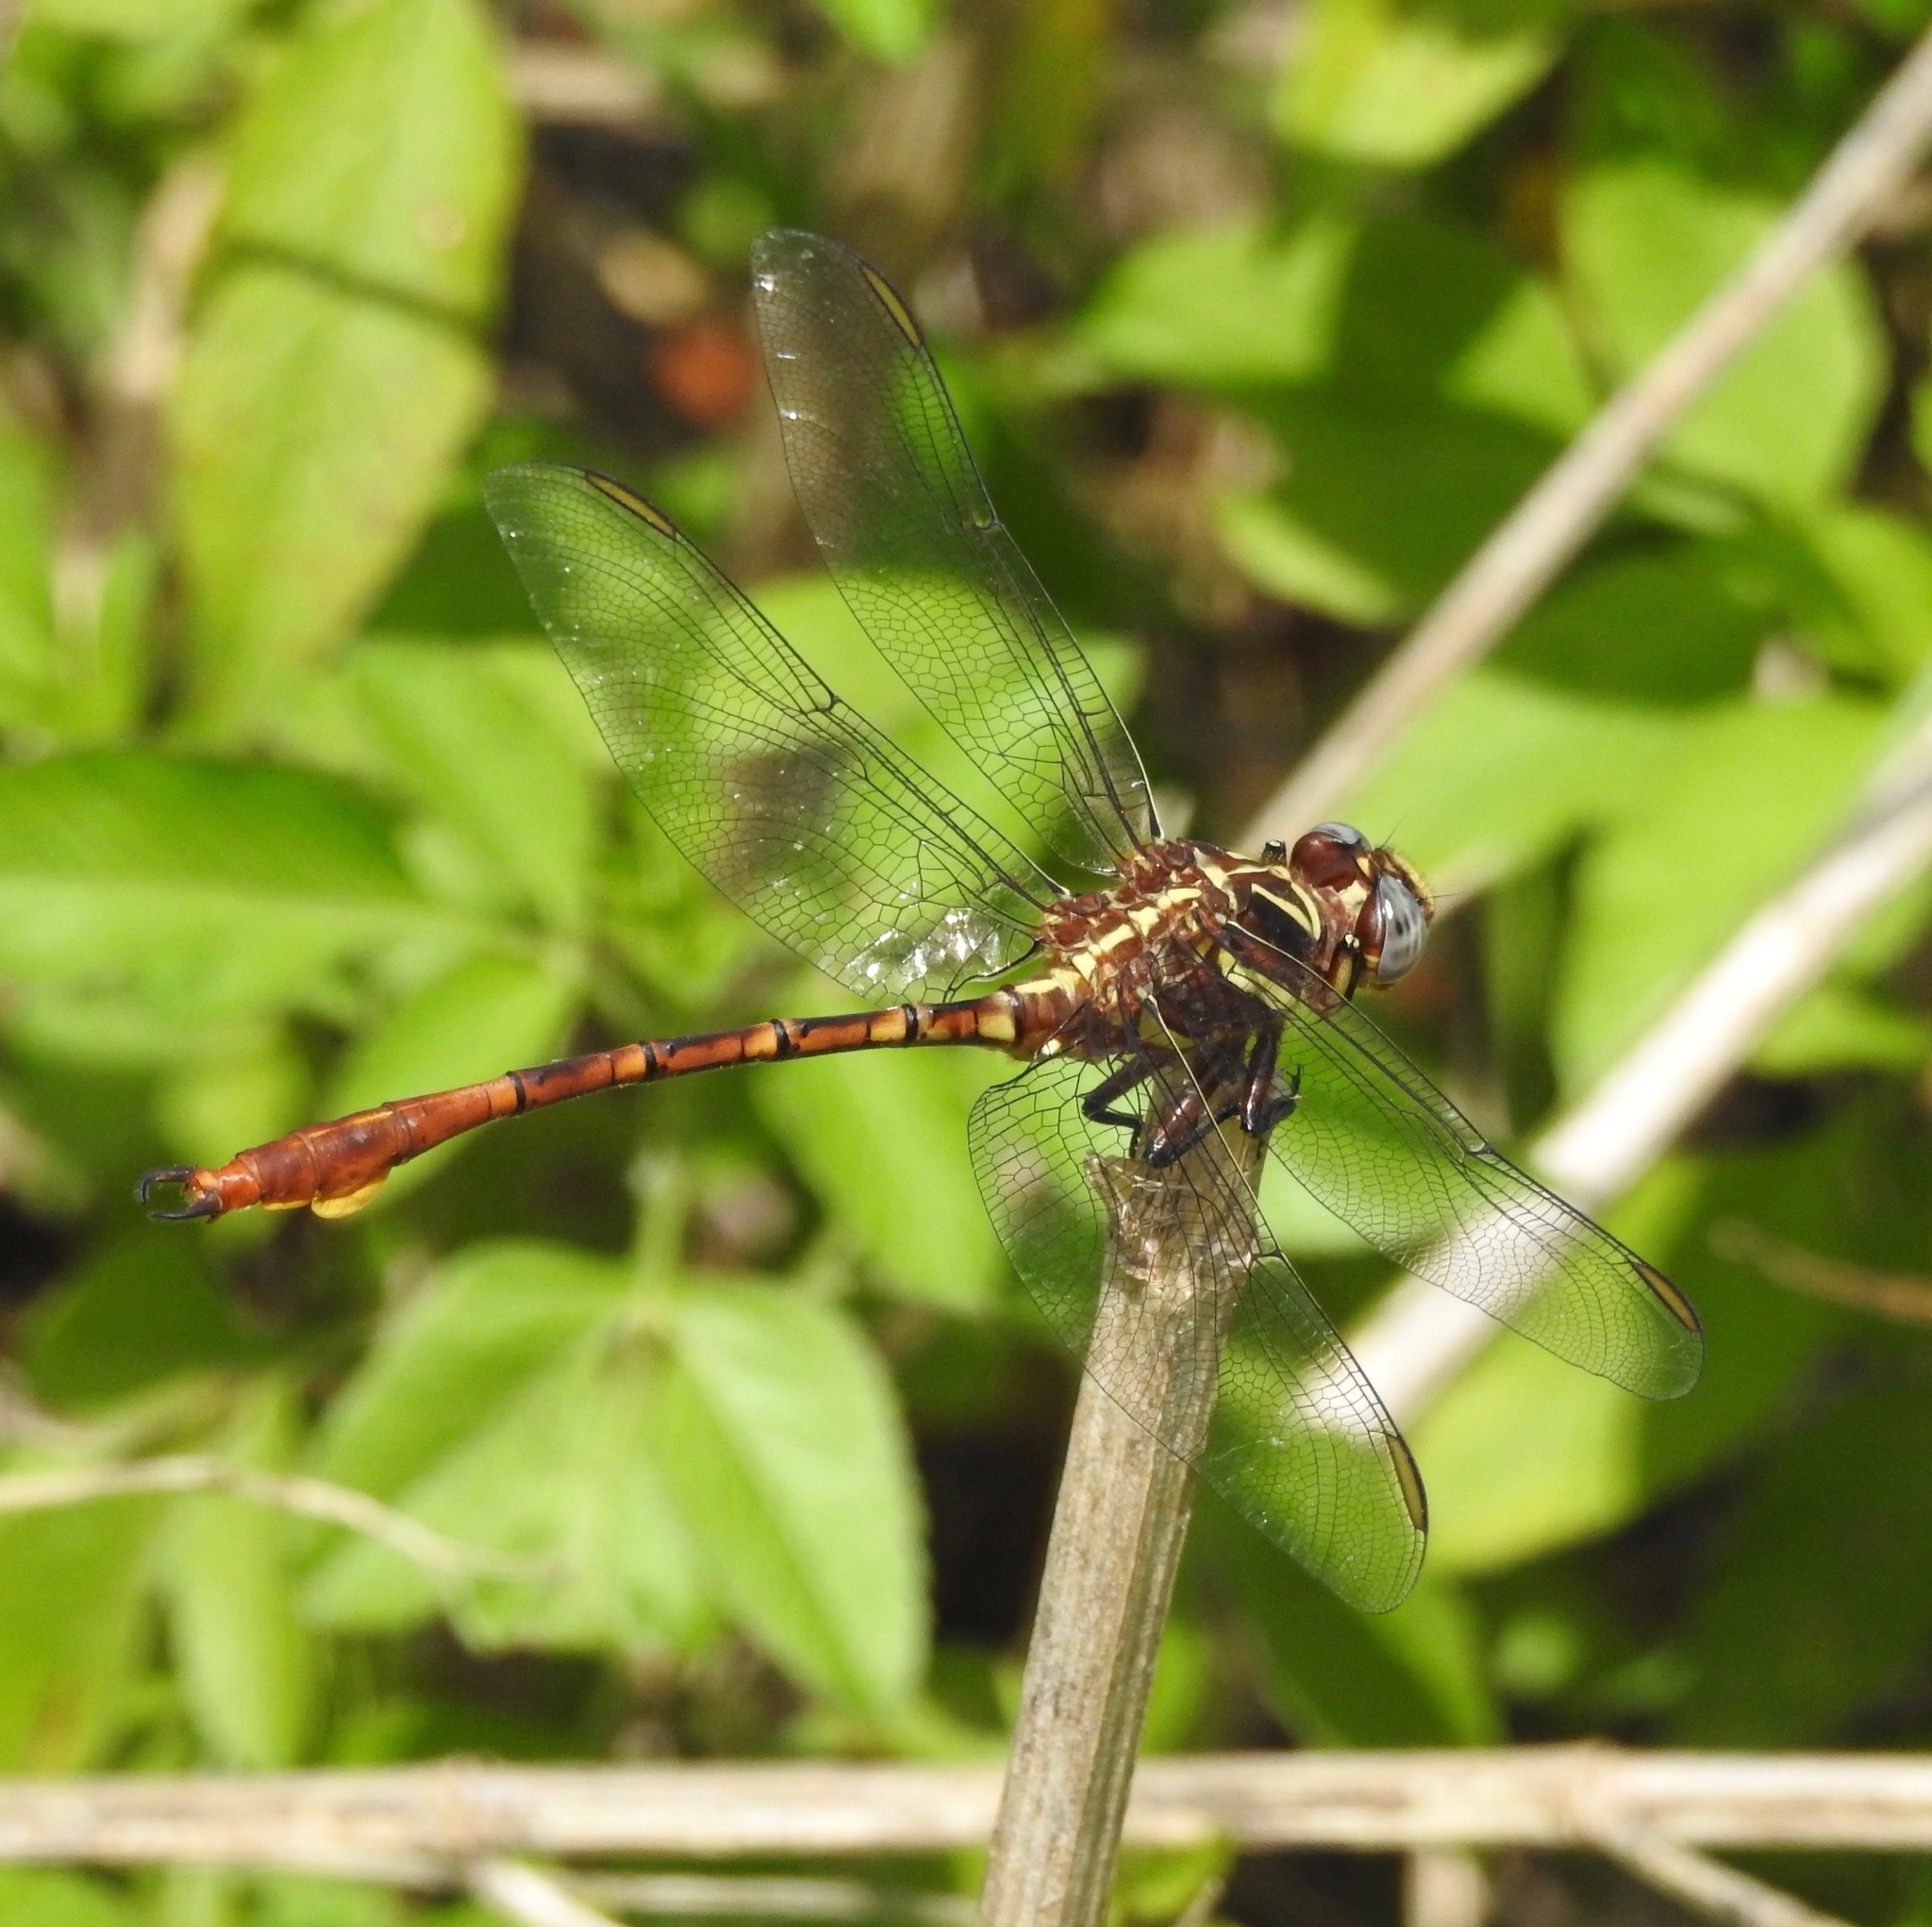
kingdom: Animalia
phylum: Arthropoda
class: Insecta
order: Odonata
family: Gomphidae
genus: Aphylla
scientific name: Aphylla williamsoni
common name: Two-striped forceptail
